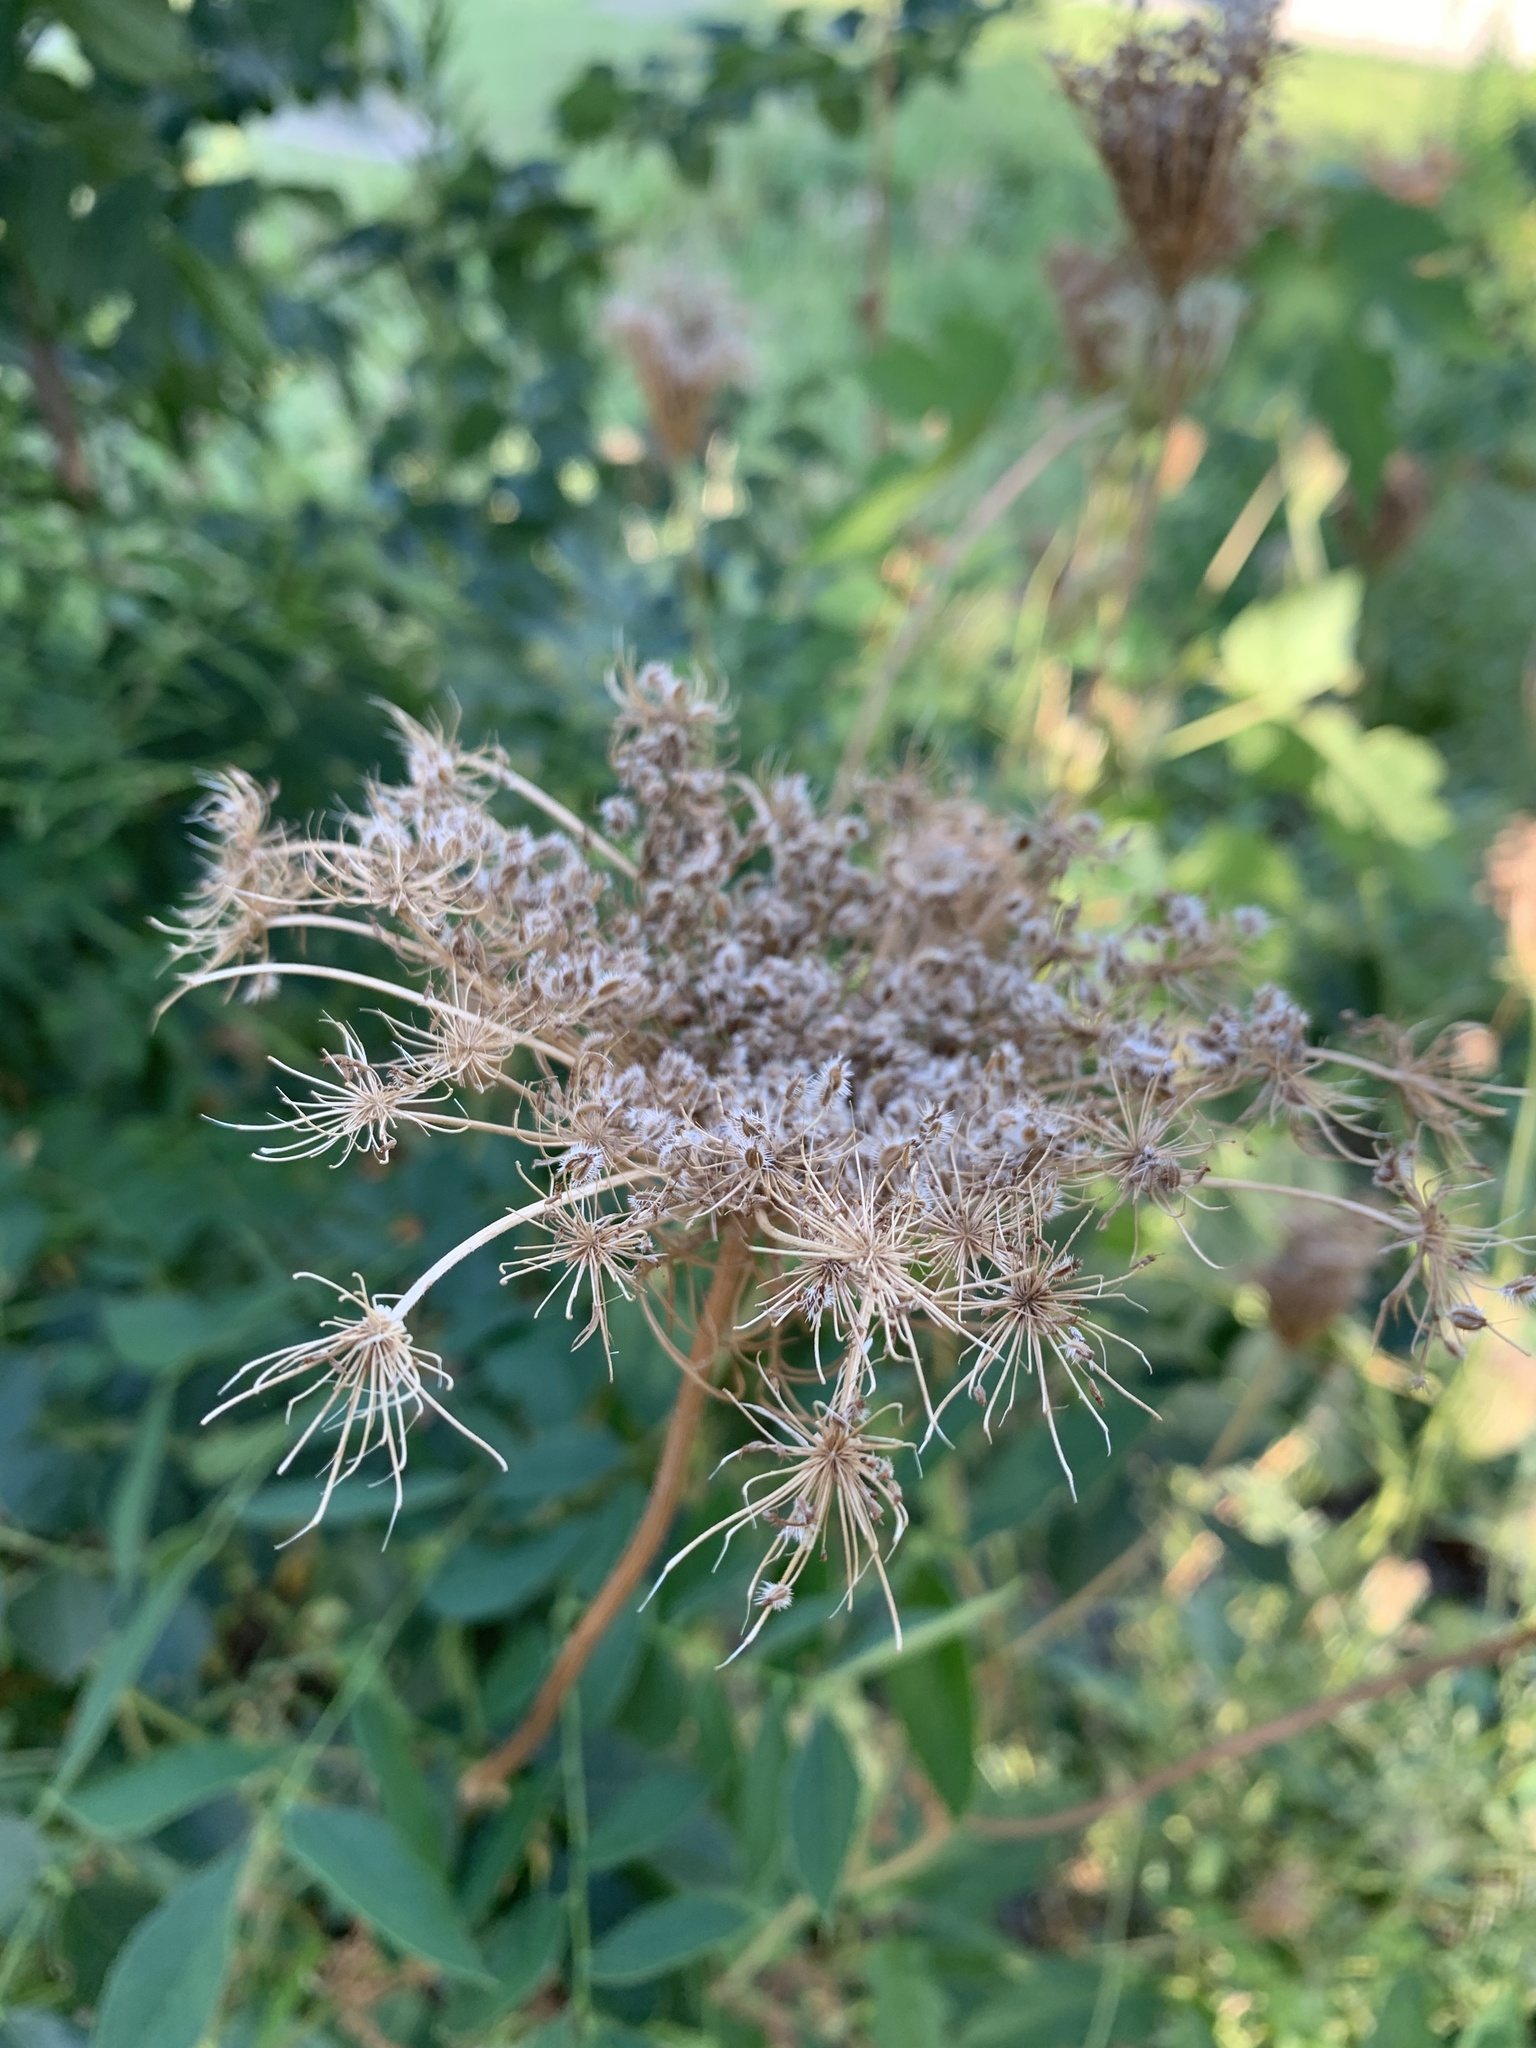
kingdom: Plantae
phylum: Tracheophyta
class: Magnoliopsida
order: Apiales
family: Apiaceae
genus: Daucus
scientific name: Daucus carota
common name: Wild carrot
